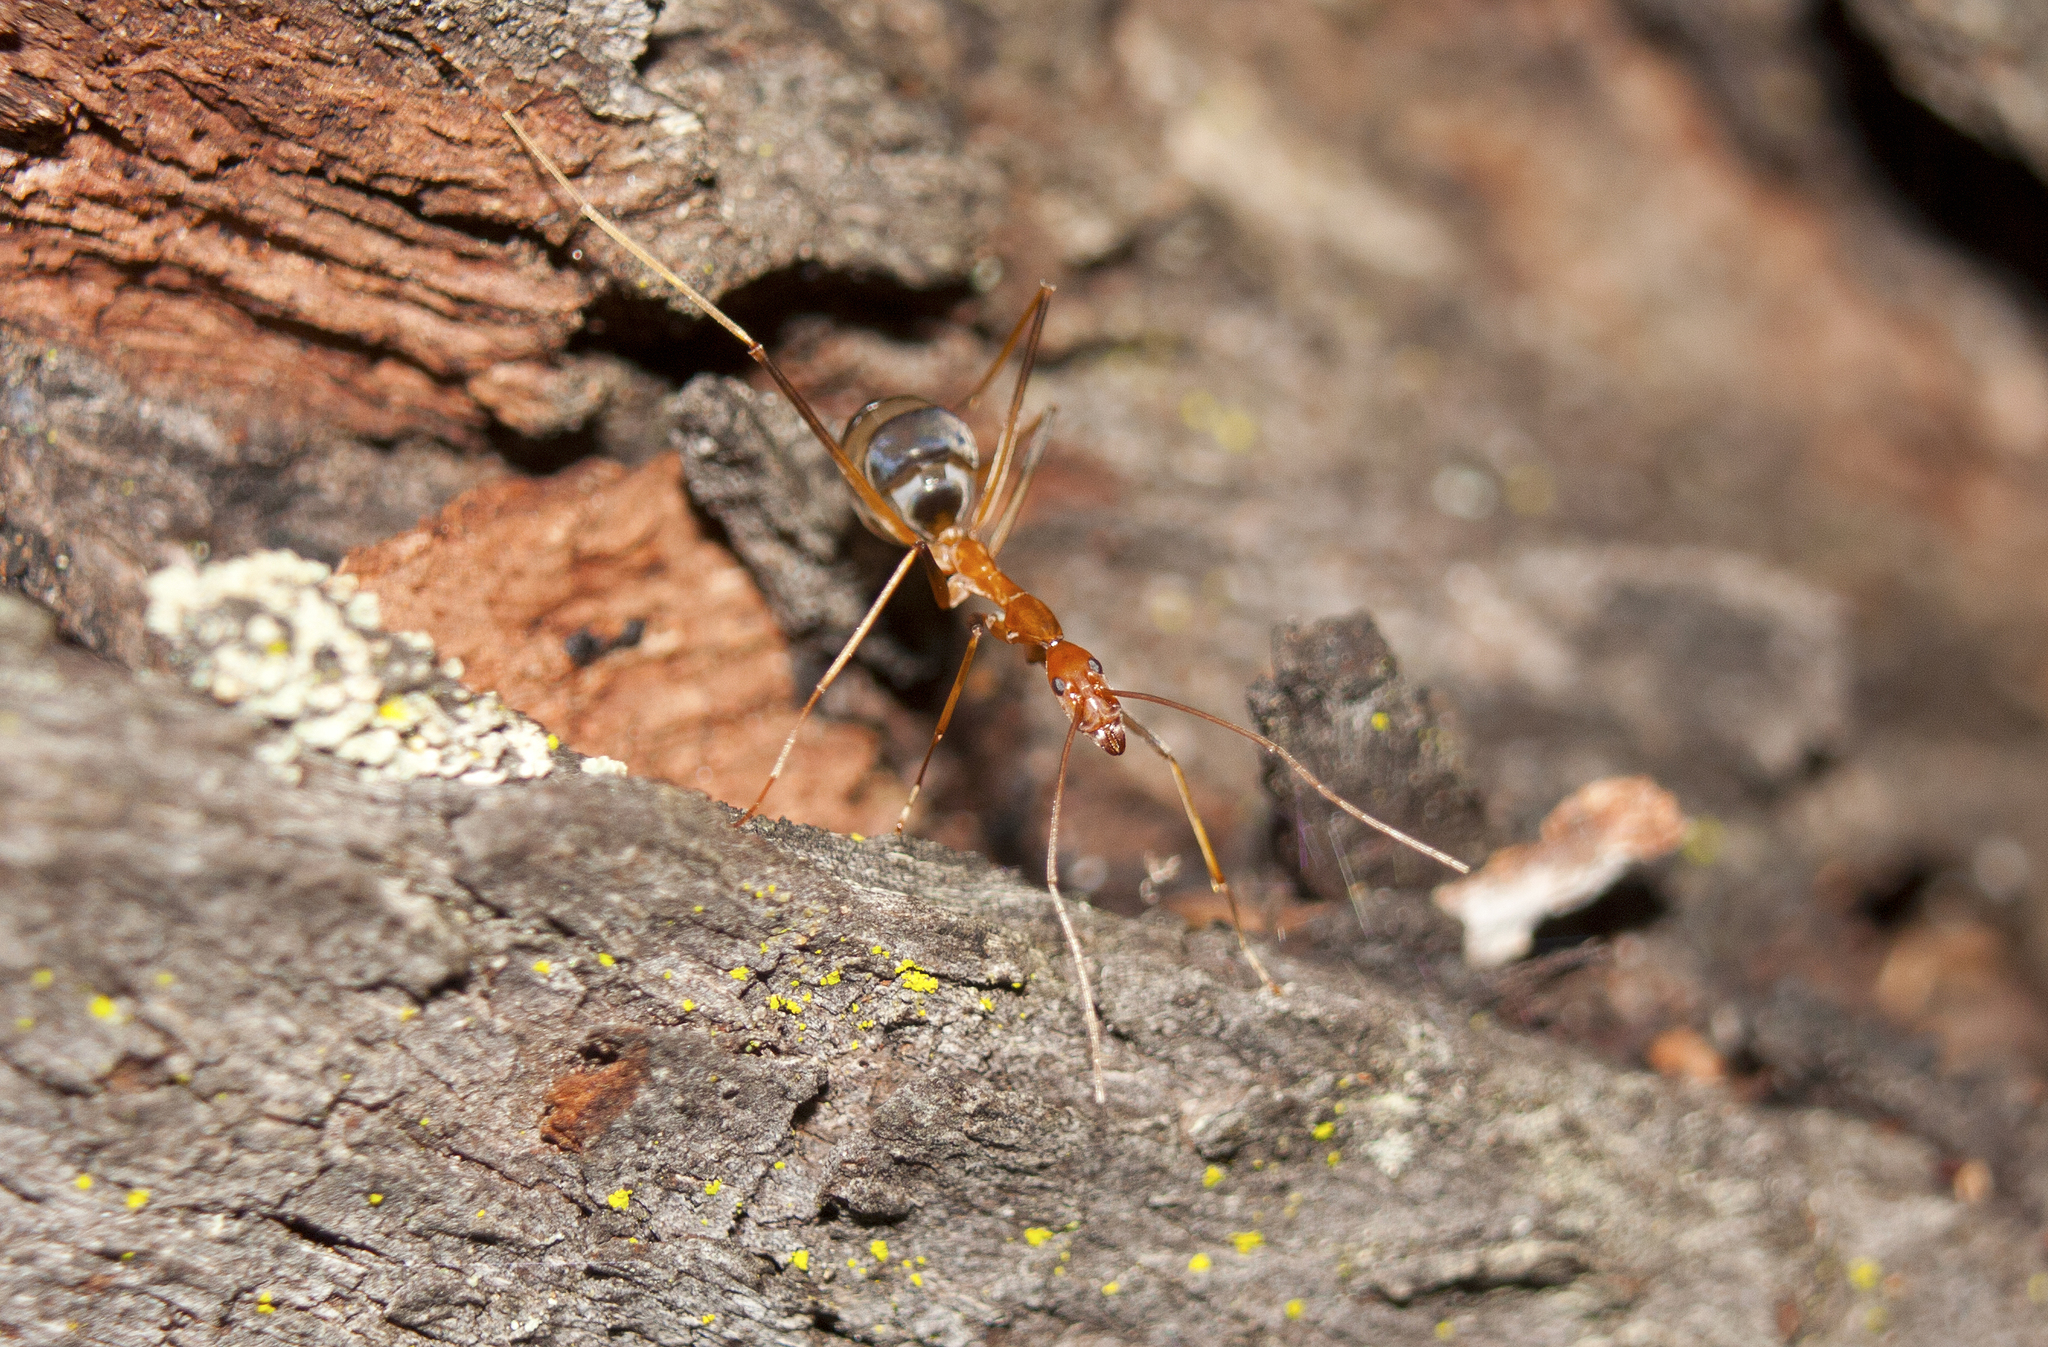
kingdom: Animalia
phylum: Arthropoda
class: Insecta
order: Hymenoptera
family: Formicidae
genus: Leptomyrmex
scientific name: Leptomyrmex rufipes
